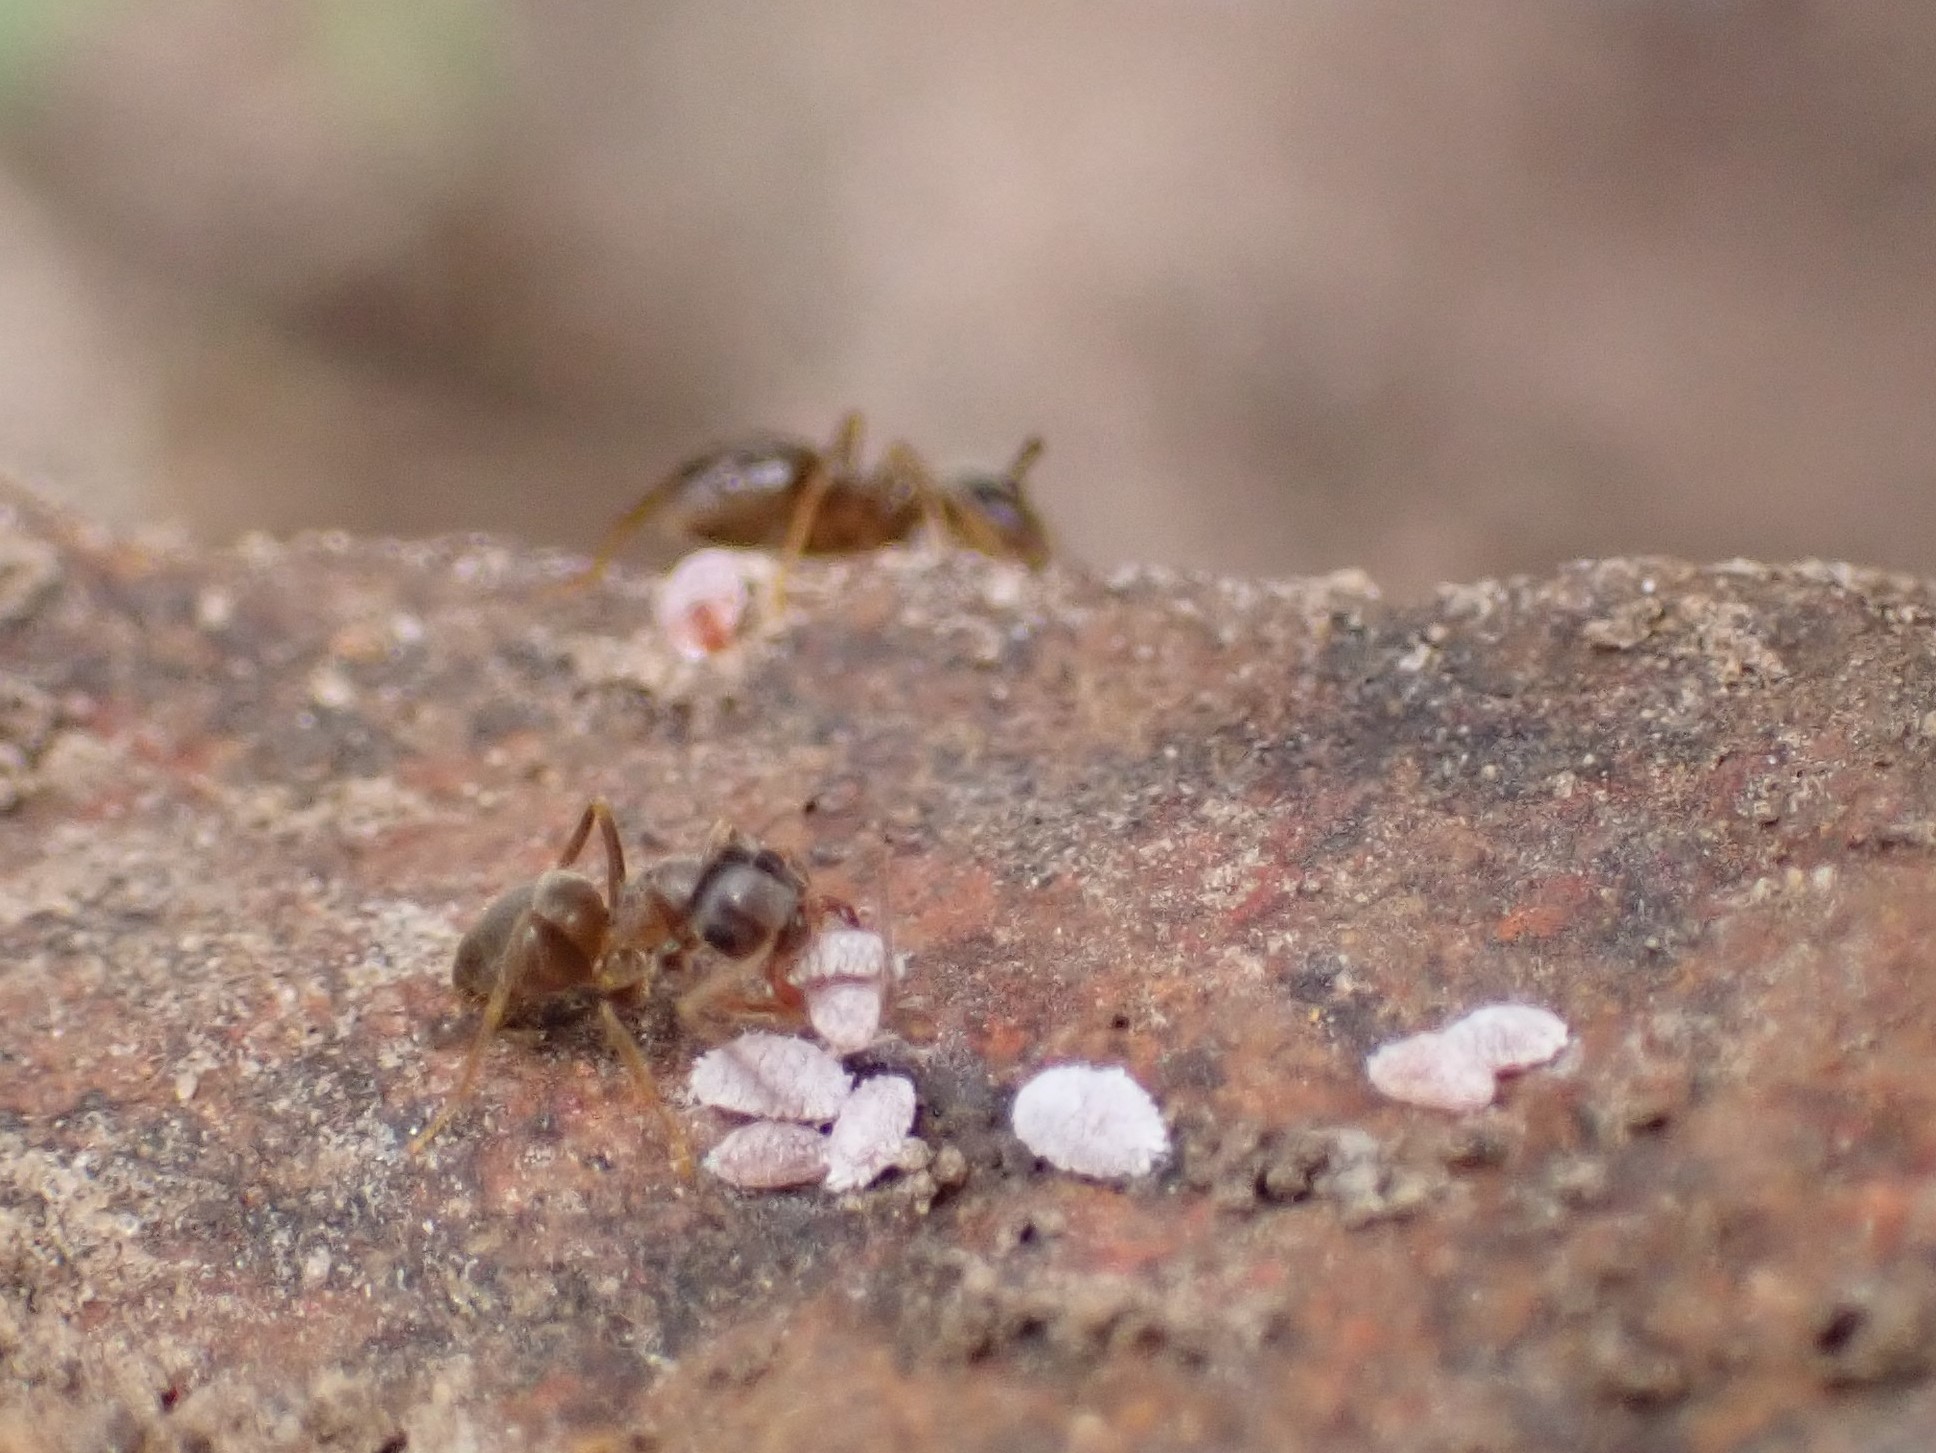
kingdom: Animalia
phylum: Arthropoda
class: Insecta
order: Hymenoptera
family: Formicidae
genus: Lasius
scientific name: Lasius neoniger
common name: Turfgrass ant
